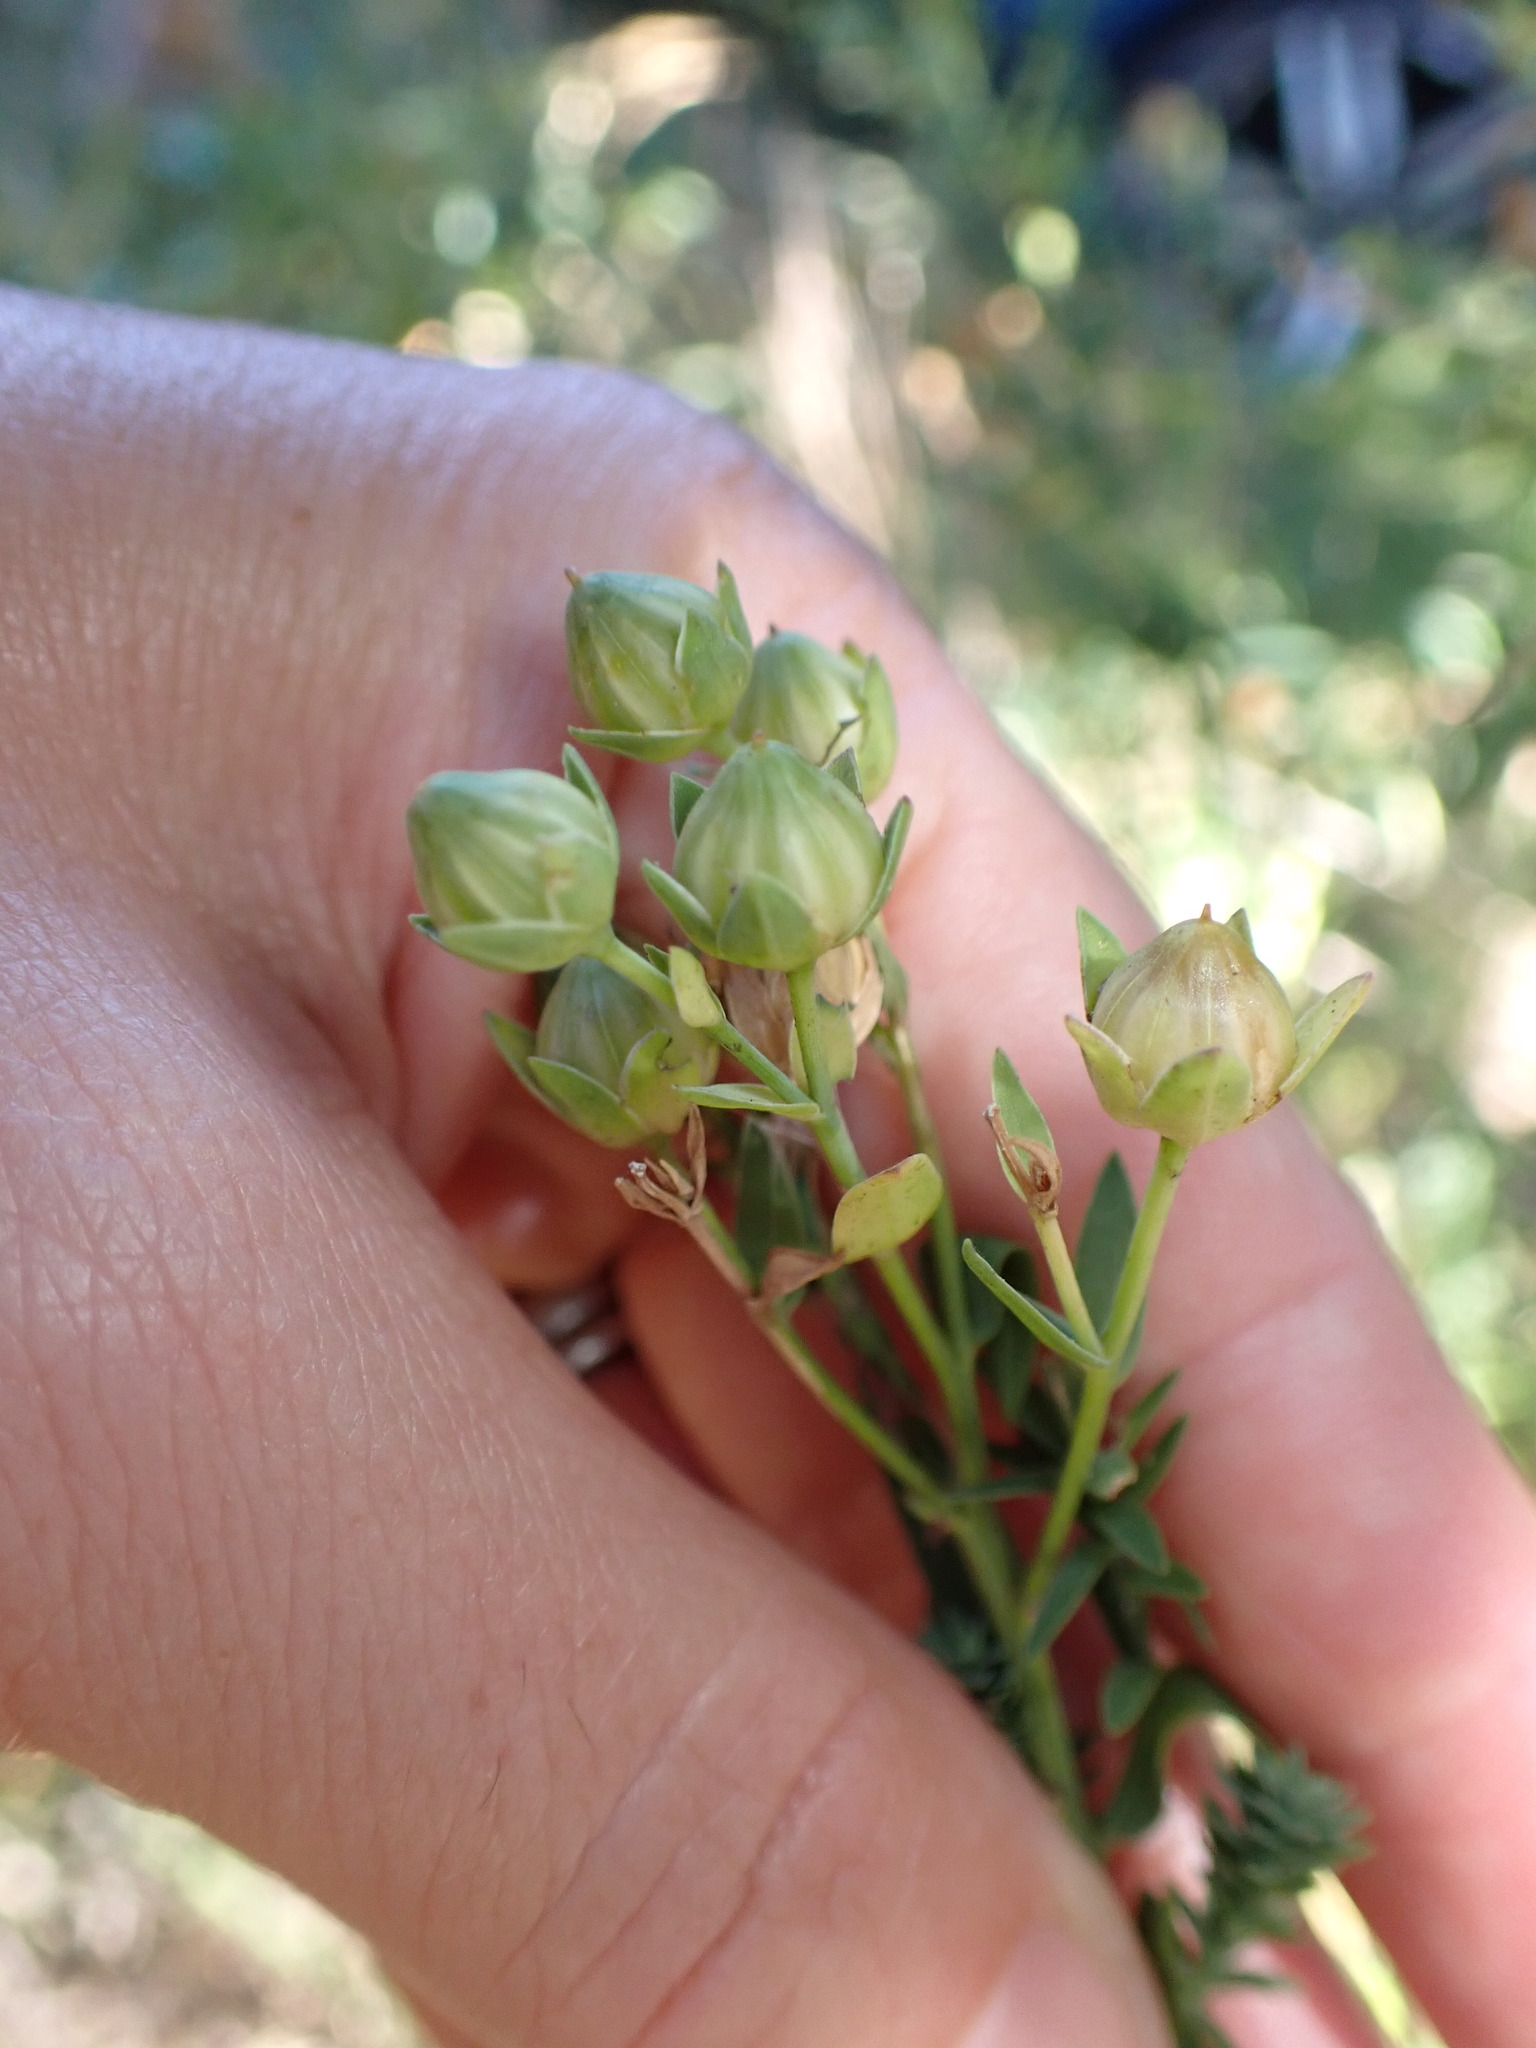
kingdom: Plantae
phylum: Tracheophyta
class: Magnoliopsida
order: Malpighiales
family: Linaceae
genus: Linum
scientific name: Linum monogynum
